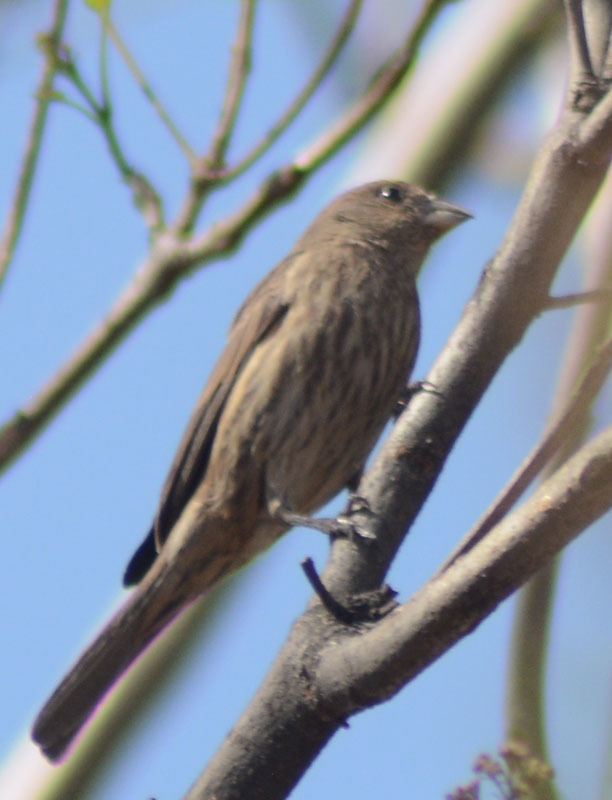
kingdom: Animalia
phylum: Chordata
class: Aves
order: Passeriformes
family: Fringillidae
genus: Haemorhous
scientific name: Haemorhous mexicanus
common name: House finch
